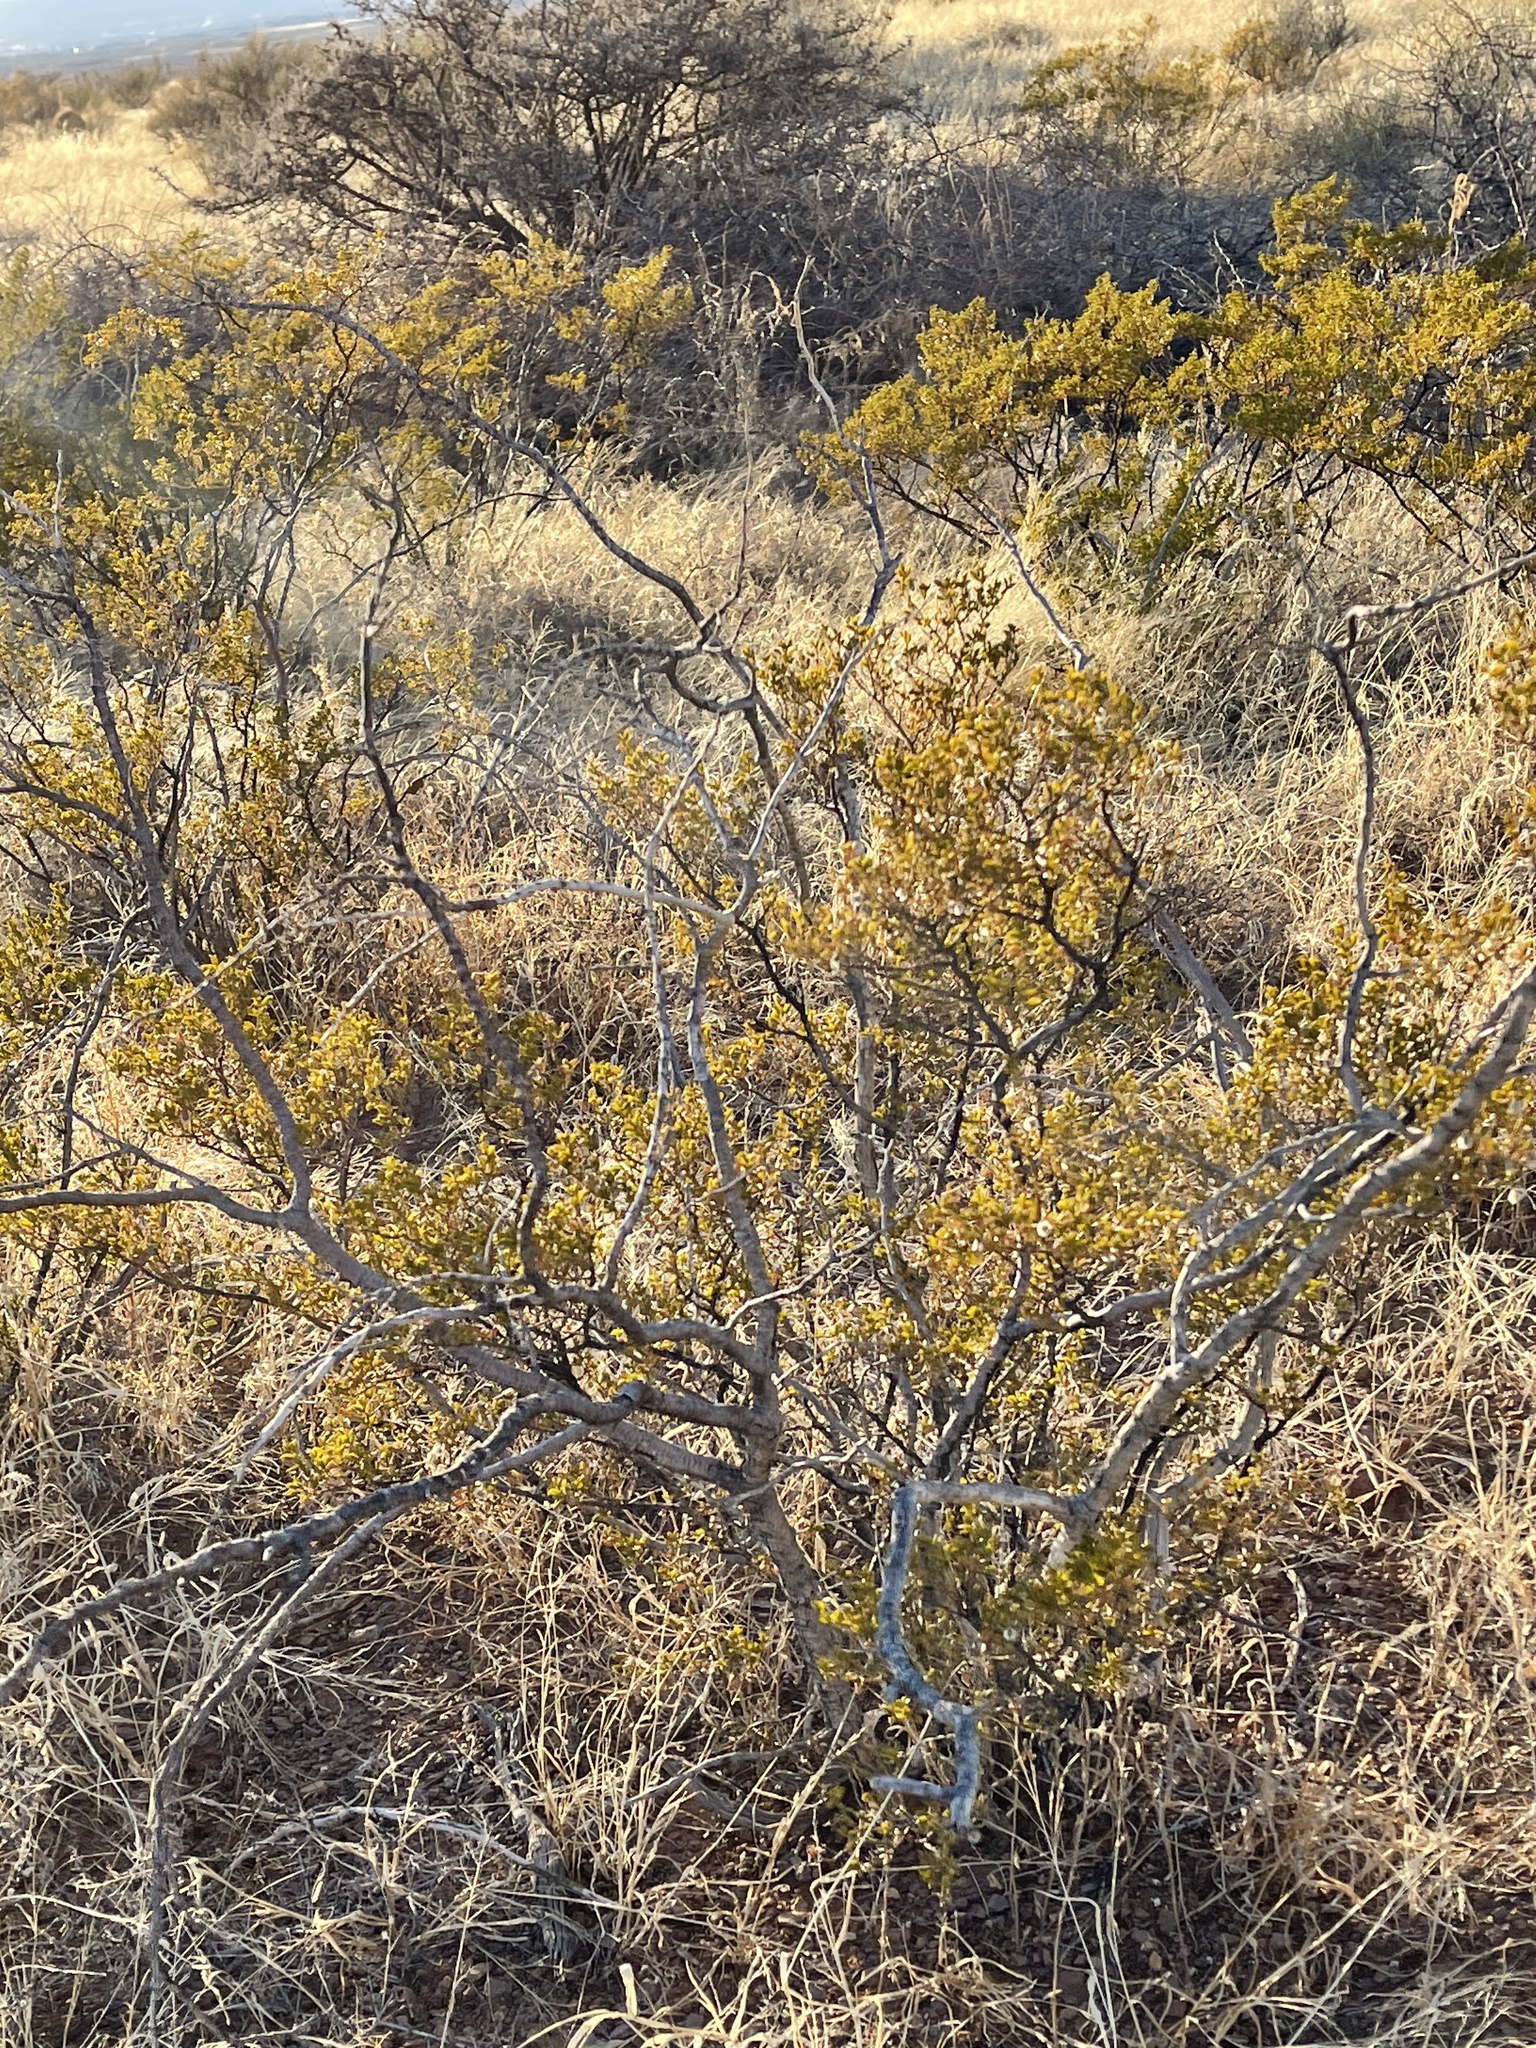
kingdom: Plantae
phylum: Tracheophyta
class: Magnoliopsida
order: Zygophyllales
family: Zygophyllaceae
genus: Larrea
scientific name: Larrea tridentata
